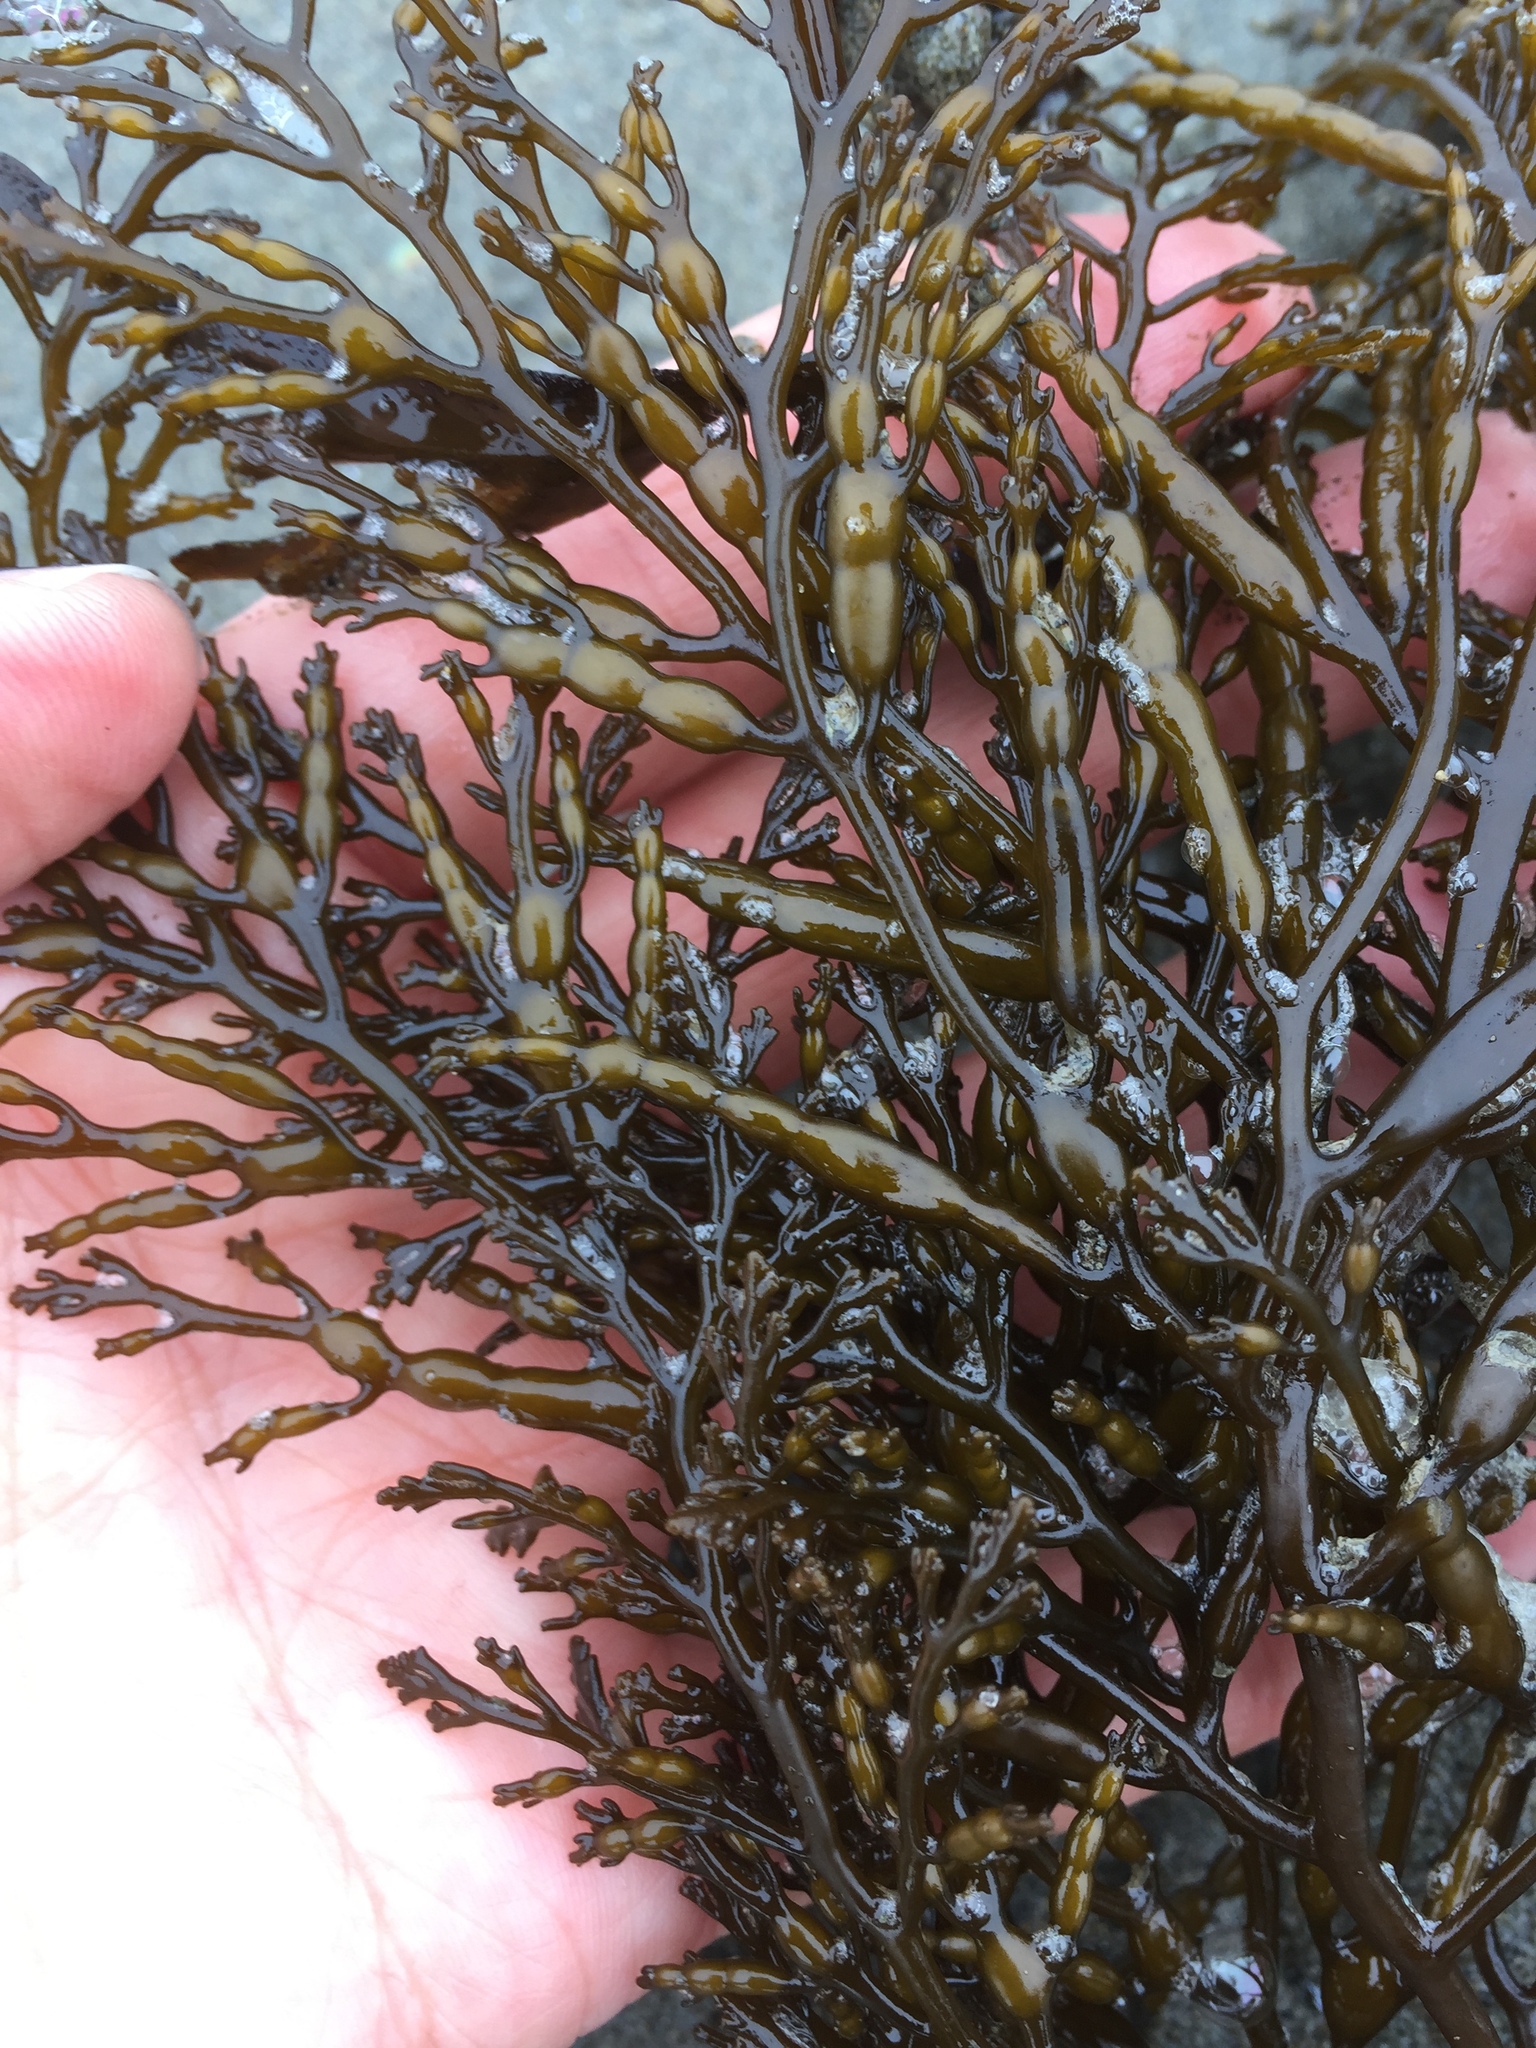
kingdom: Chromista
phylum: Ochrophyta
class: Phaeophyceae
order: Fucales
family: Sargassaceae
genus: Stephanocystis
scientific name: Stephanocystis
